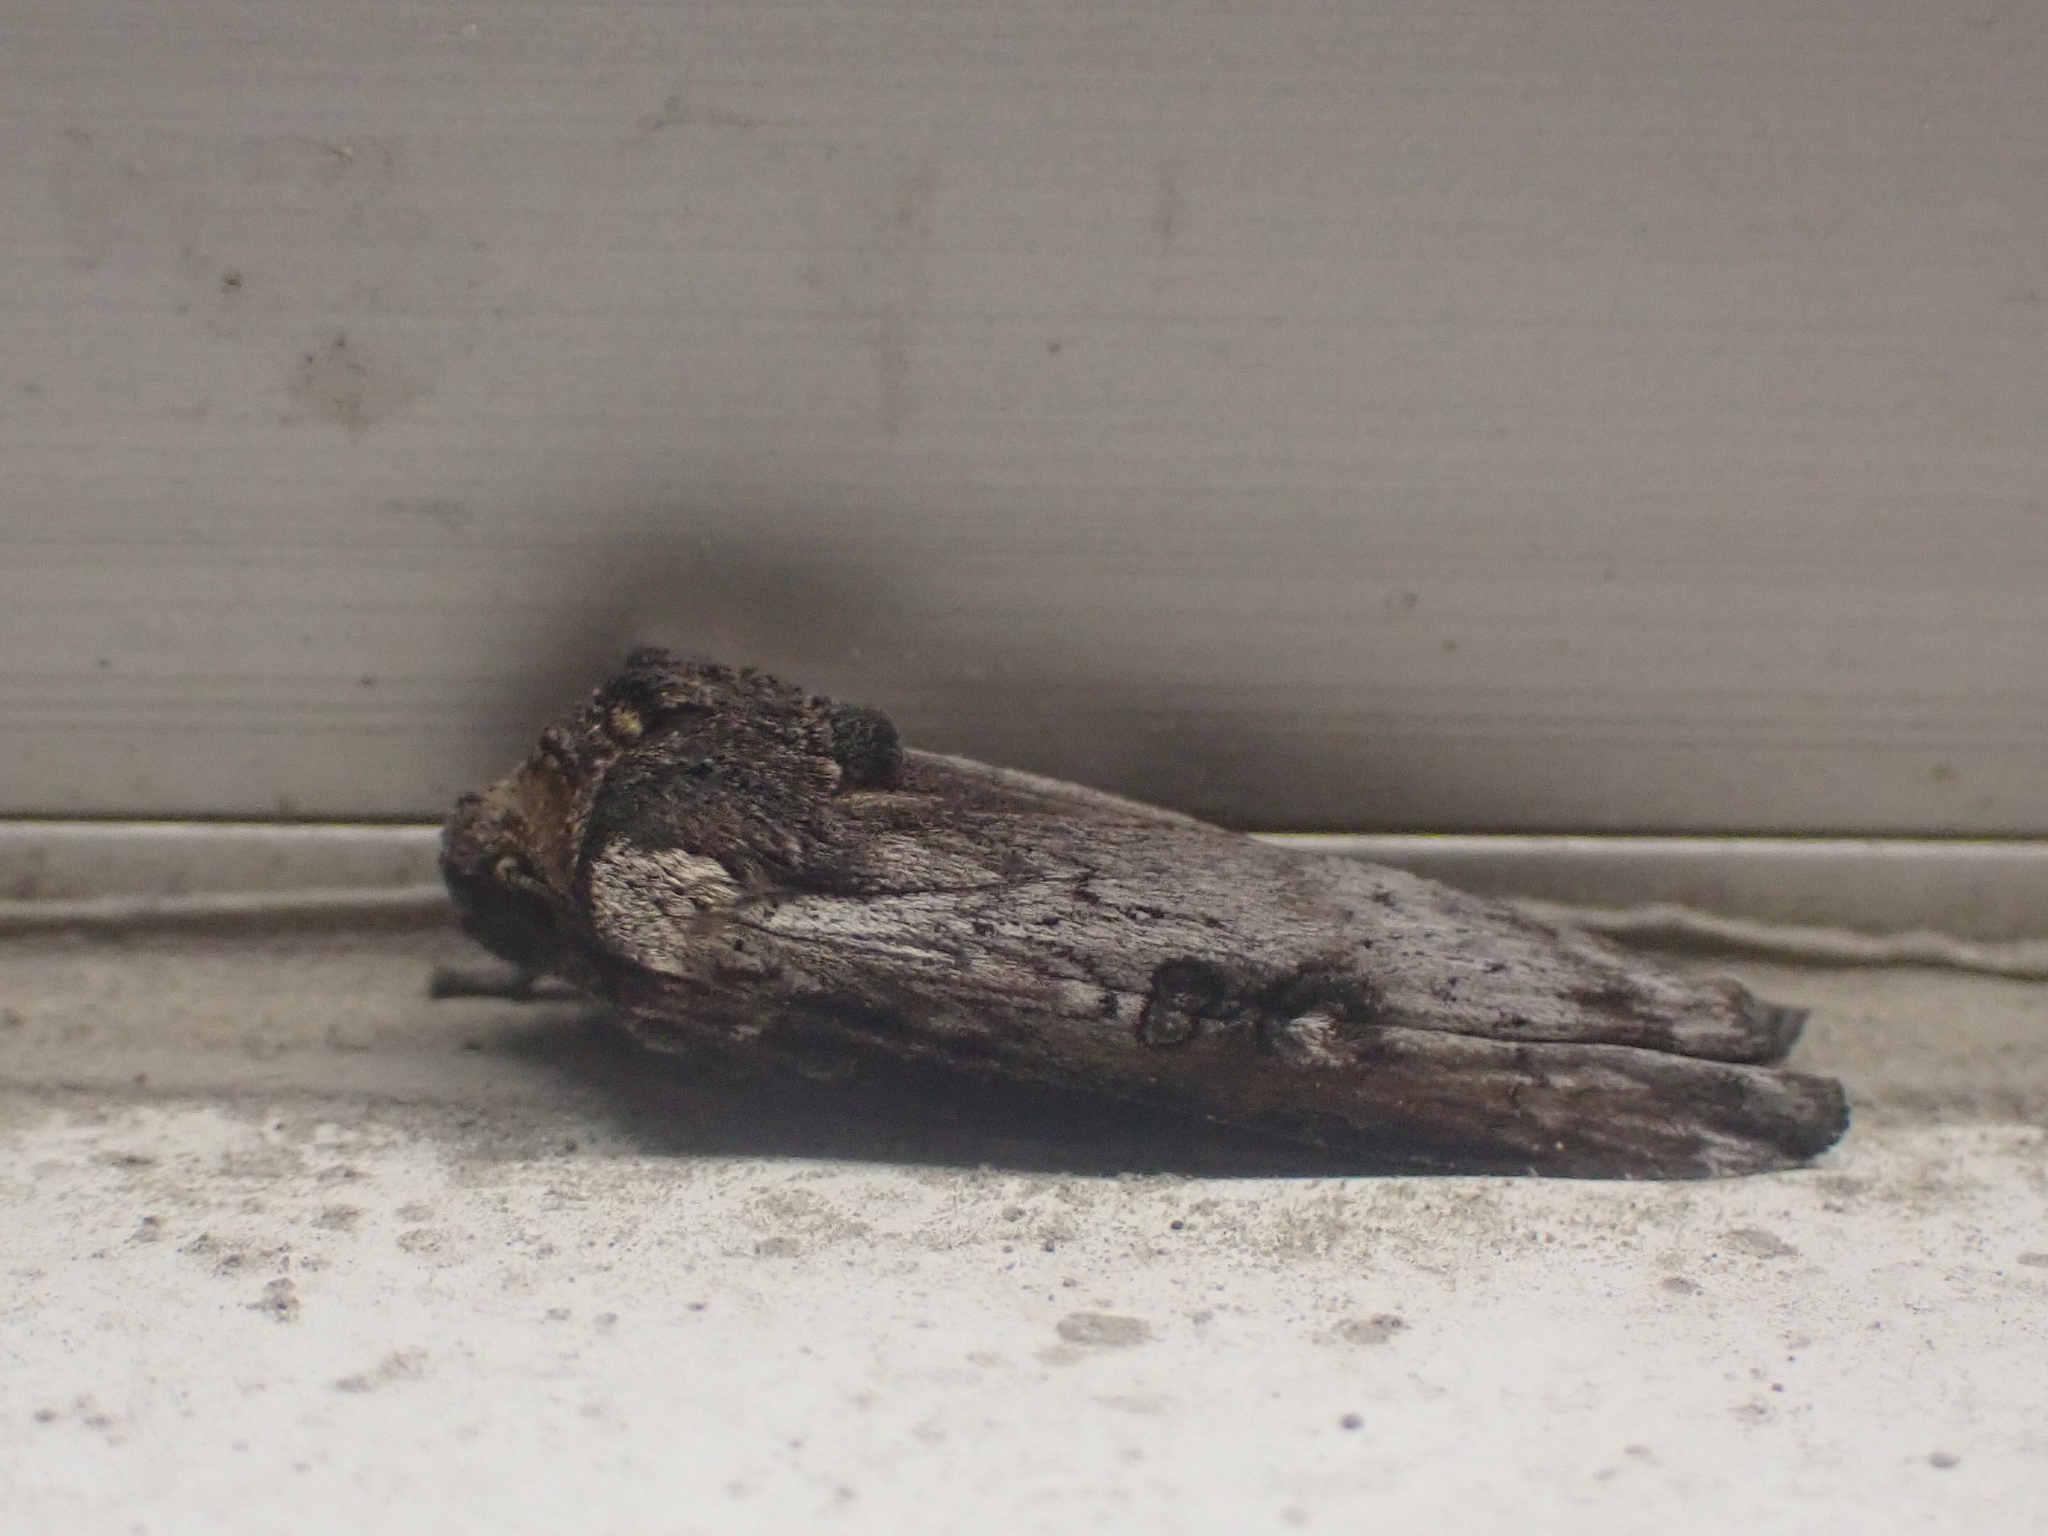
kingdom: Animalia
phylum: Arthropoda
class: Insecta
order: Lepidoptera
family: Noctuidae
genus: Xylena
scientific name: Xylena thoracica
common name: Acadian swordgrass moth
